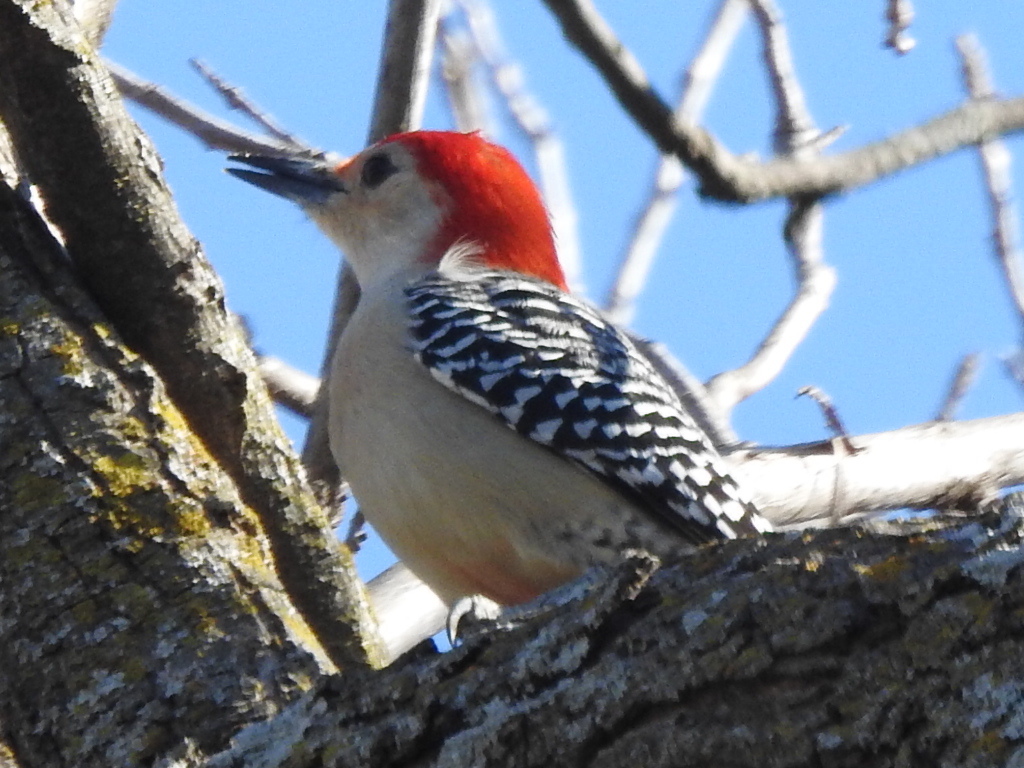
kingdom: Animalia
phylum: Chordata
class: Aves
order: Piciformes
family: Picidae
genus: Melanerpes
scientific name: Melanerpes carolinus
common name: Red-bellied woodpecker
